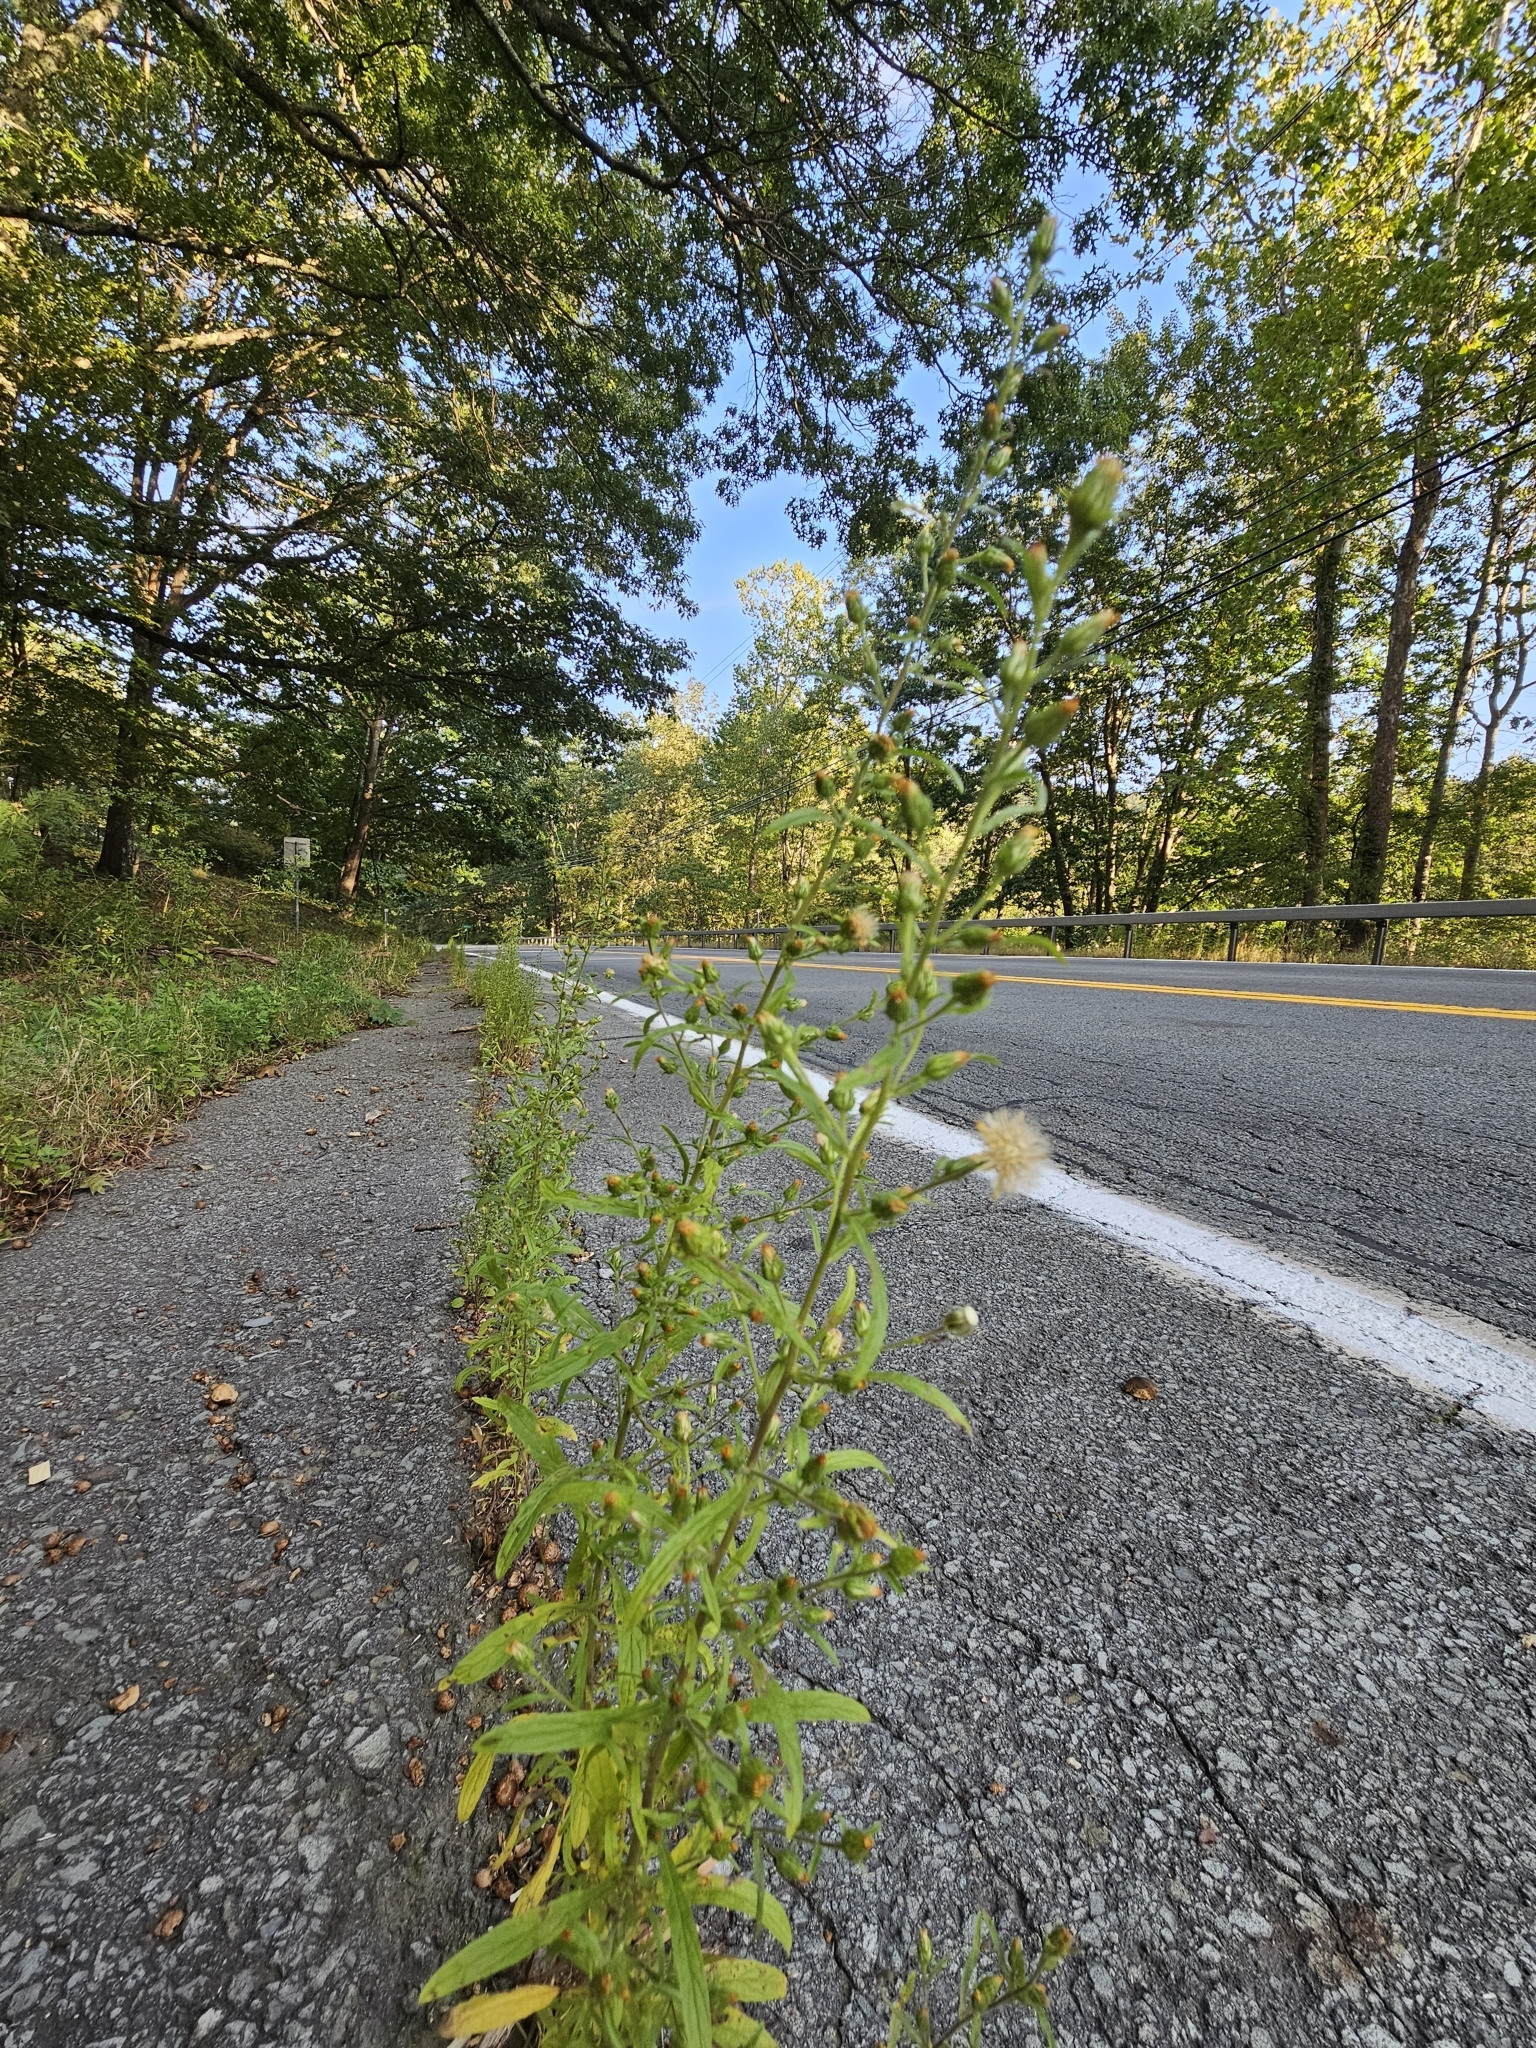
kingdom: Plantae
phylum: Tracheophyta
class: Magnoliopsida
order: Asterales
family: Asteraceae
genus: Dittrichia
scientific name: Dittrichia graveolens
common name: Stinking fleabane
